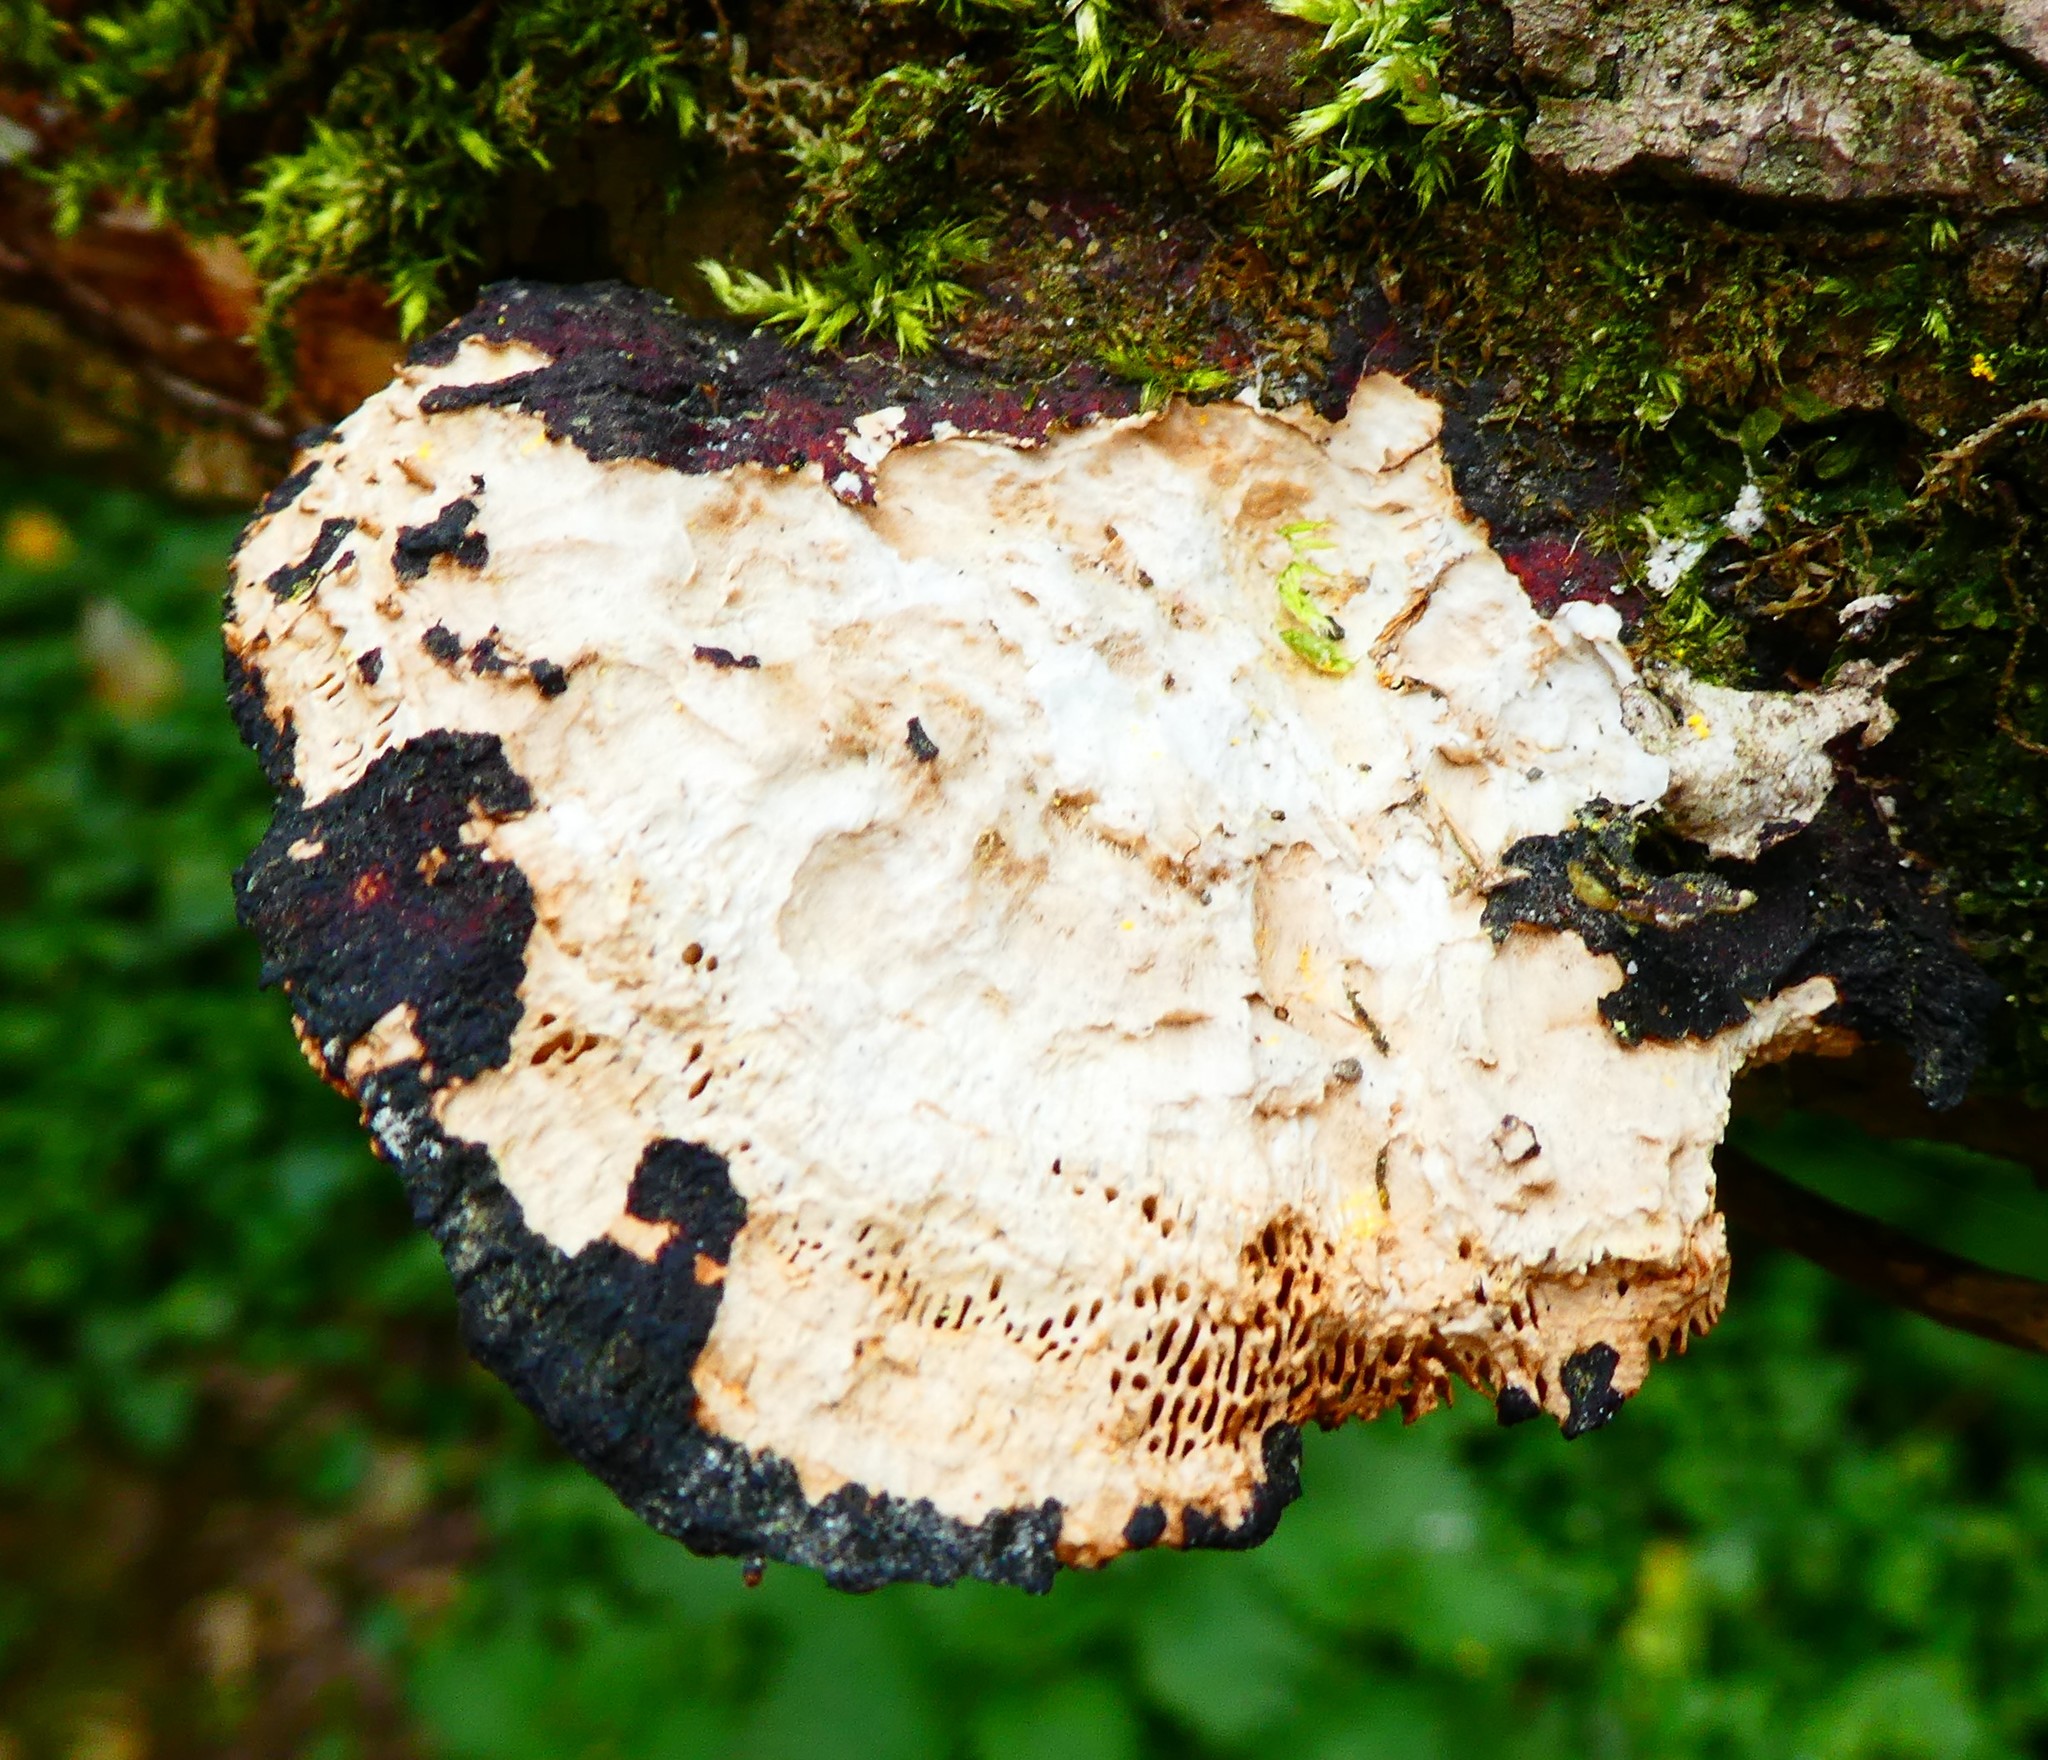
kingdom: Fungi
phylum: Basidiomycota
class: Agaricomycetes
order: Polyporales
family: Polyporaceae
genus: Daedaleopsis
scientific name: Daedaleopsis confragosa
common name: Blushing bracket
